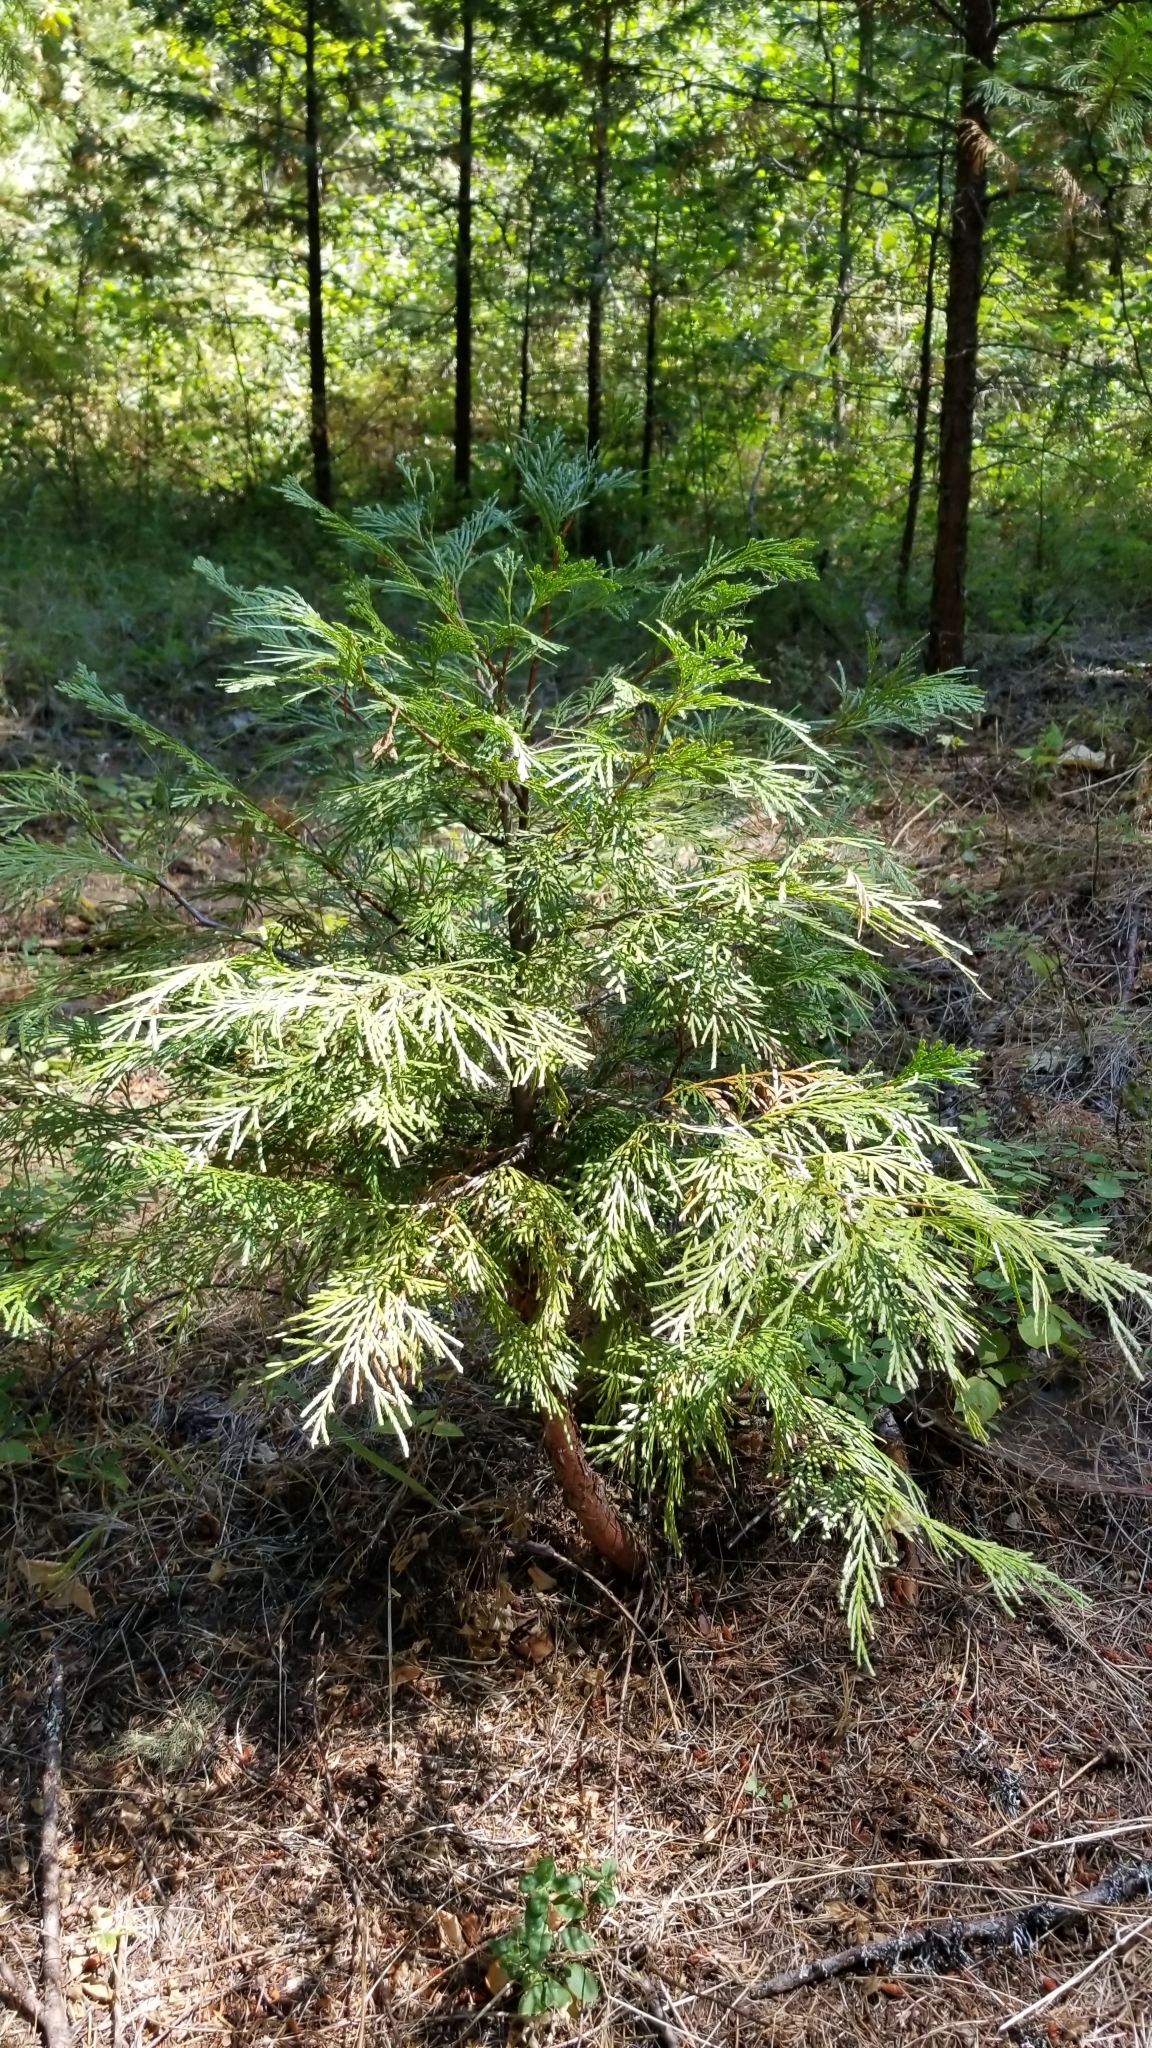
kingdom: Plantae
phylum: Tracheophyta
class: Pinopsida
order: Pinales
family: Cupressaceae
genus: Calocedrus
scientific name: Calocedrus decurrens
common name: Californian incense-cedar
